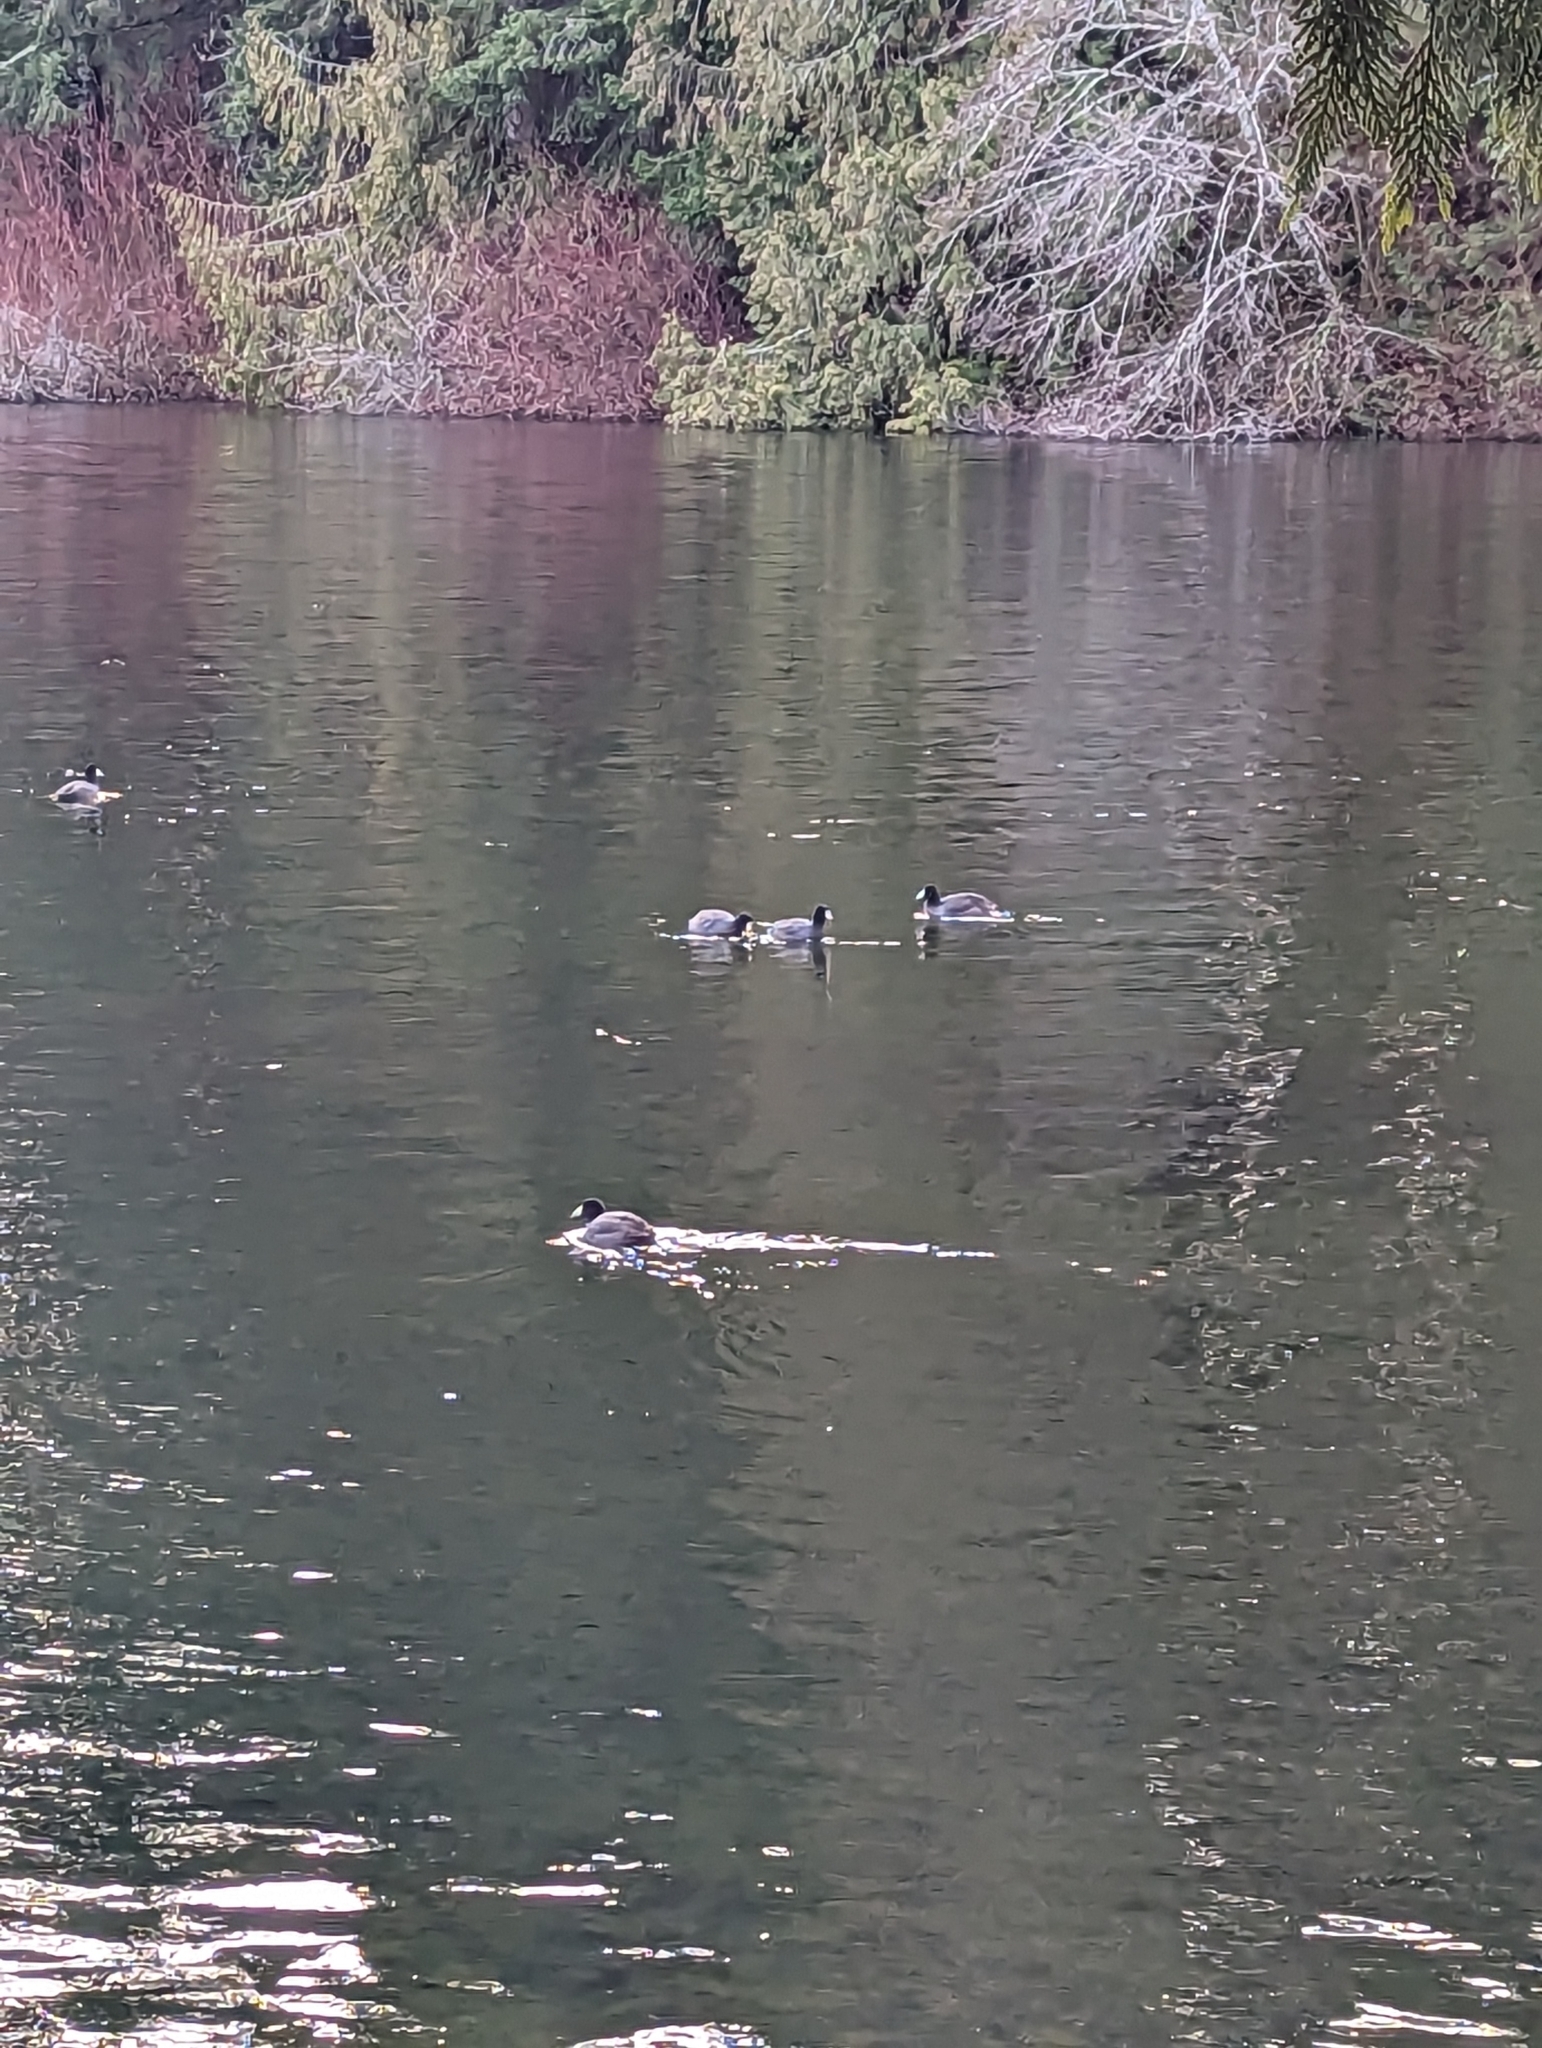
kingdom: Animalia
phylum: Chordata
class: Aves
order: Gruiformes
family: Rallidae
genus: Fulica
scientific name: Fulica americana
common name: American coot
